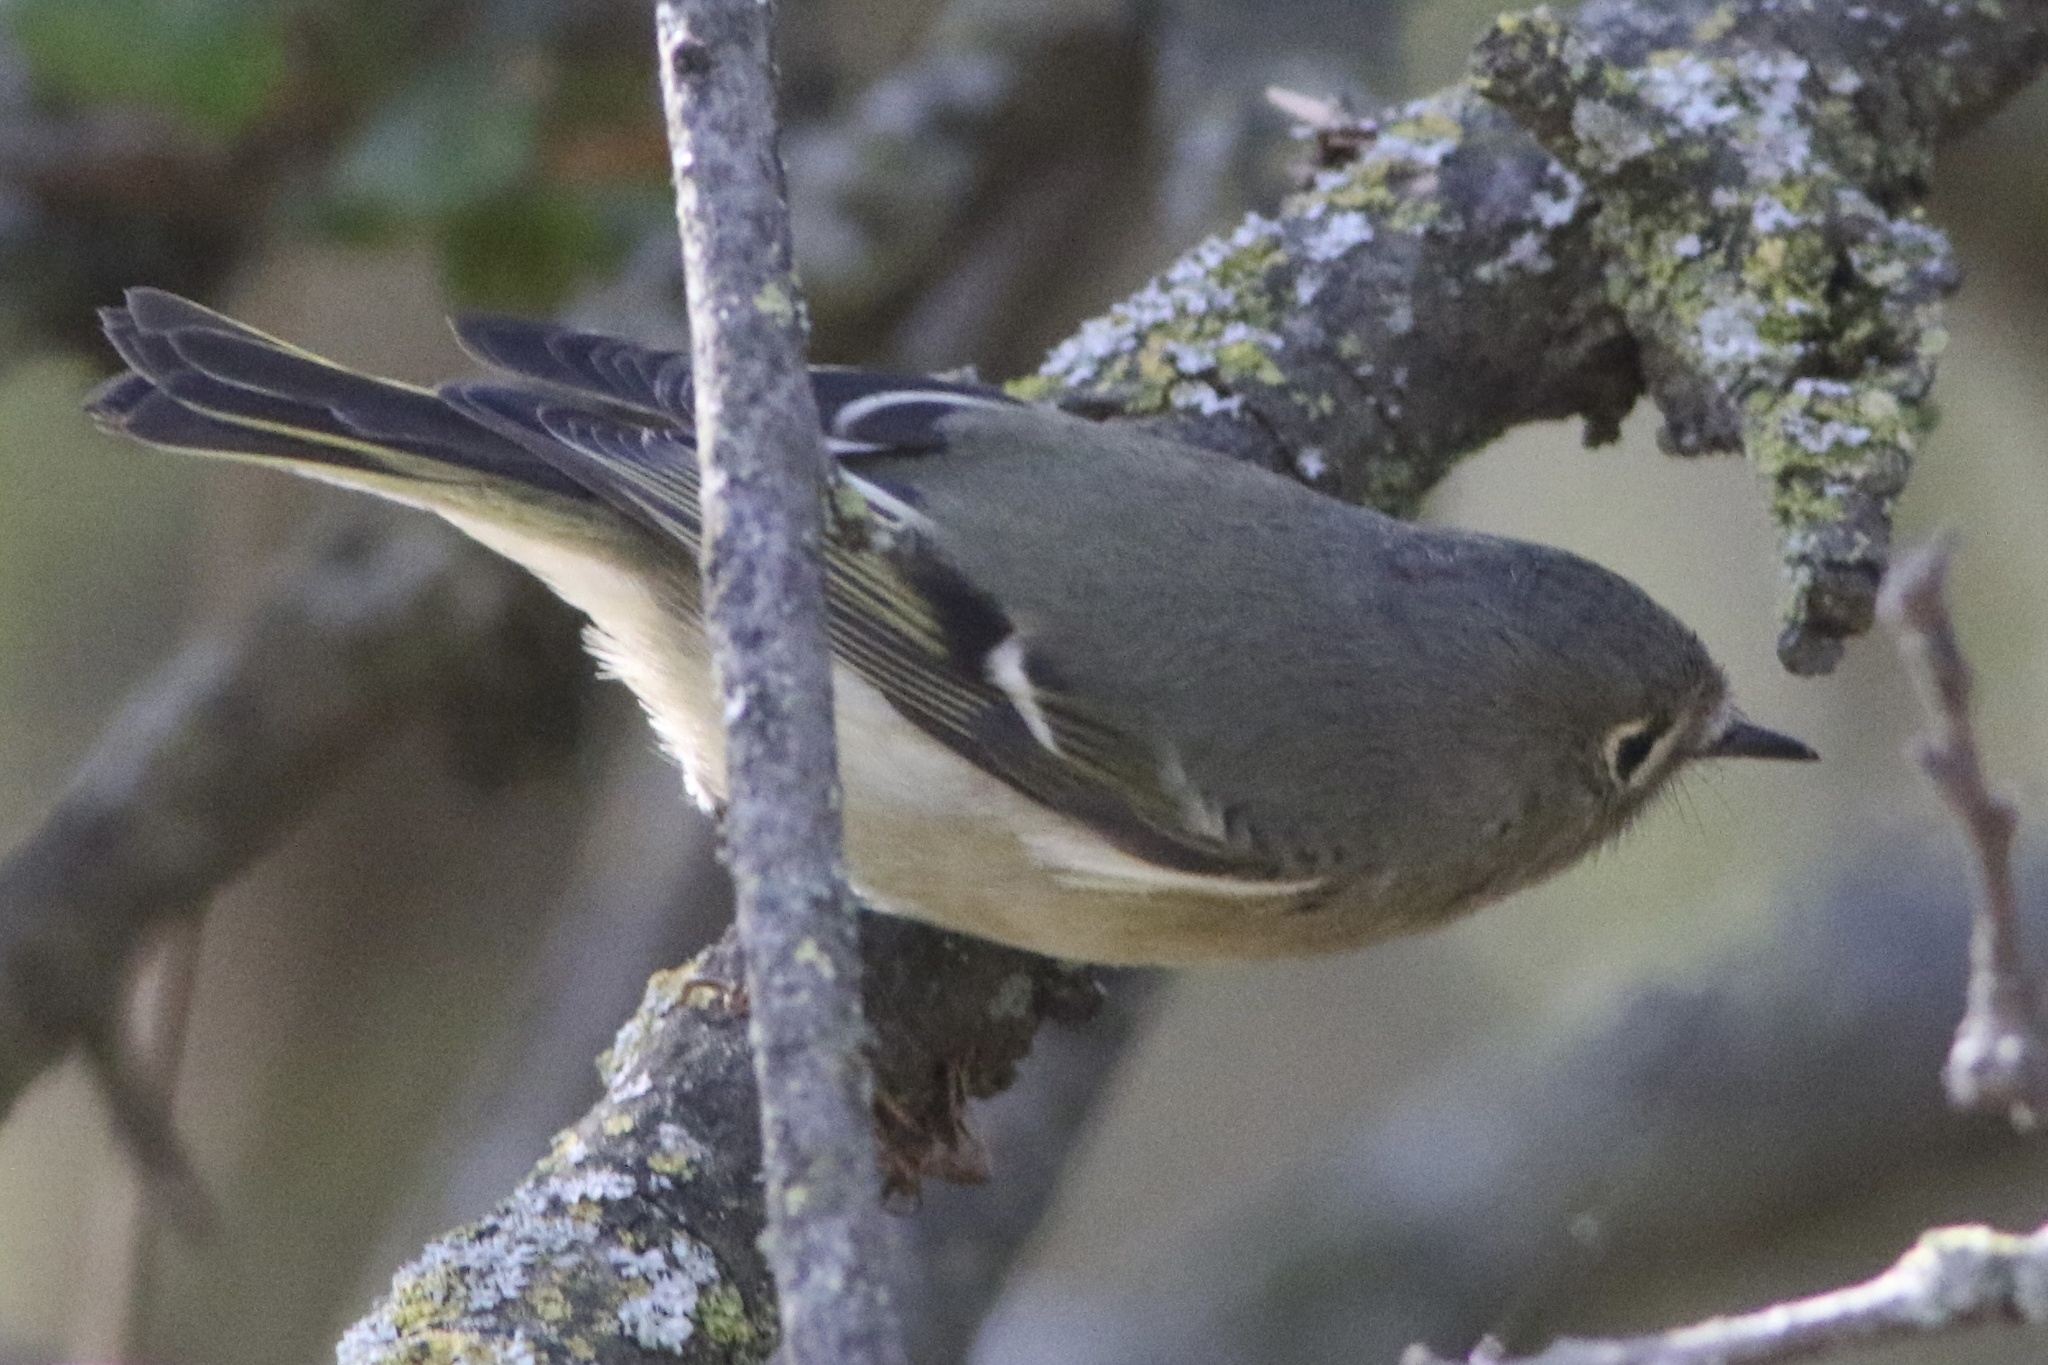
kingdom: Animalia
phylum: Chordata
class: Aves
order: Passeriformes
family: Regulidae
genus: Regulus
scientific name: Regulus calendula
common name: Ruby-crowned kinglet
